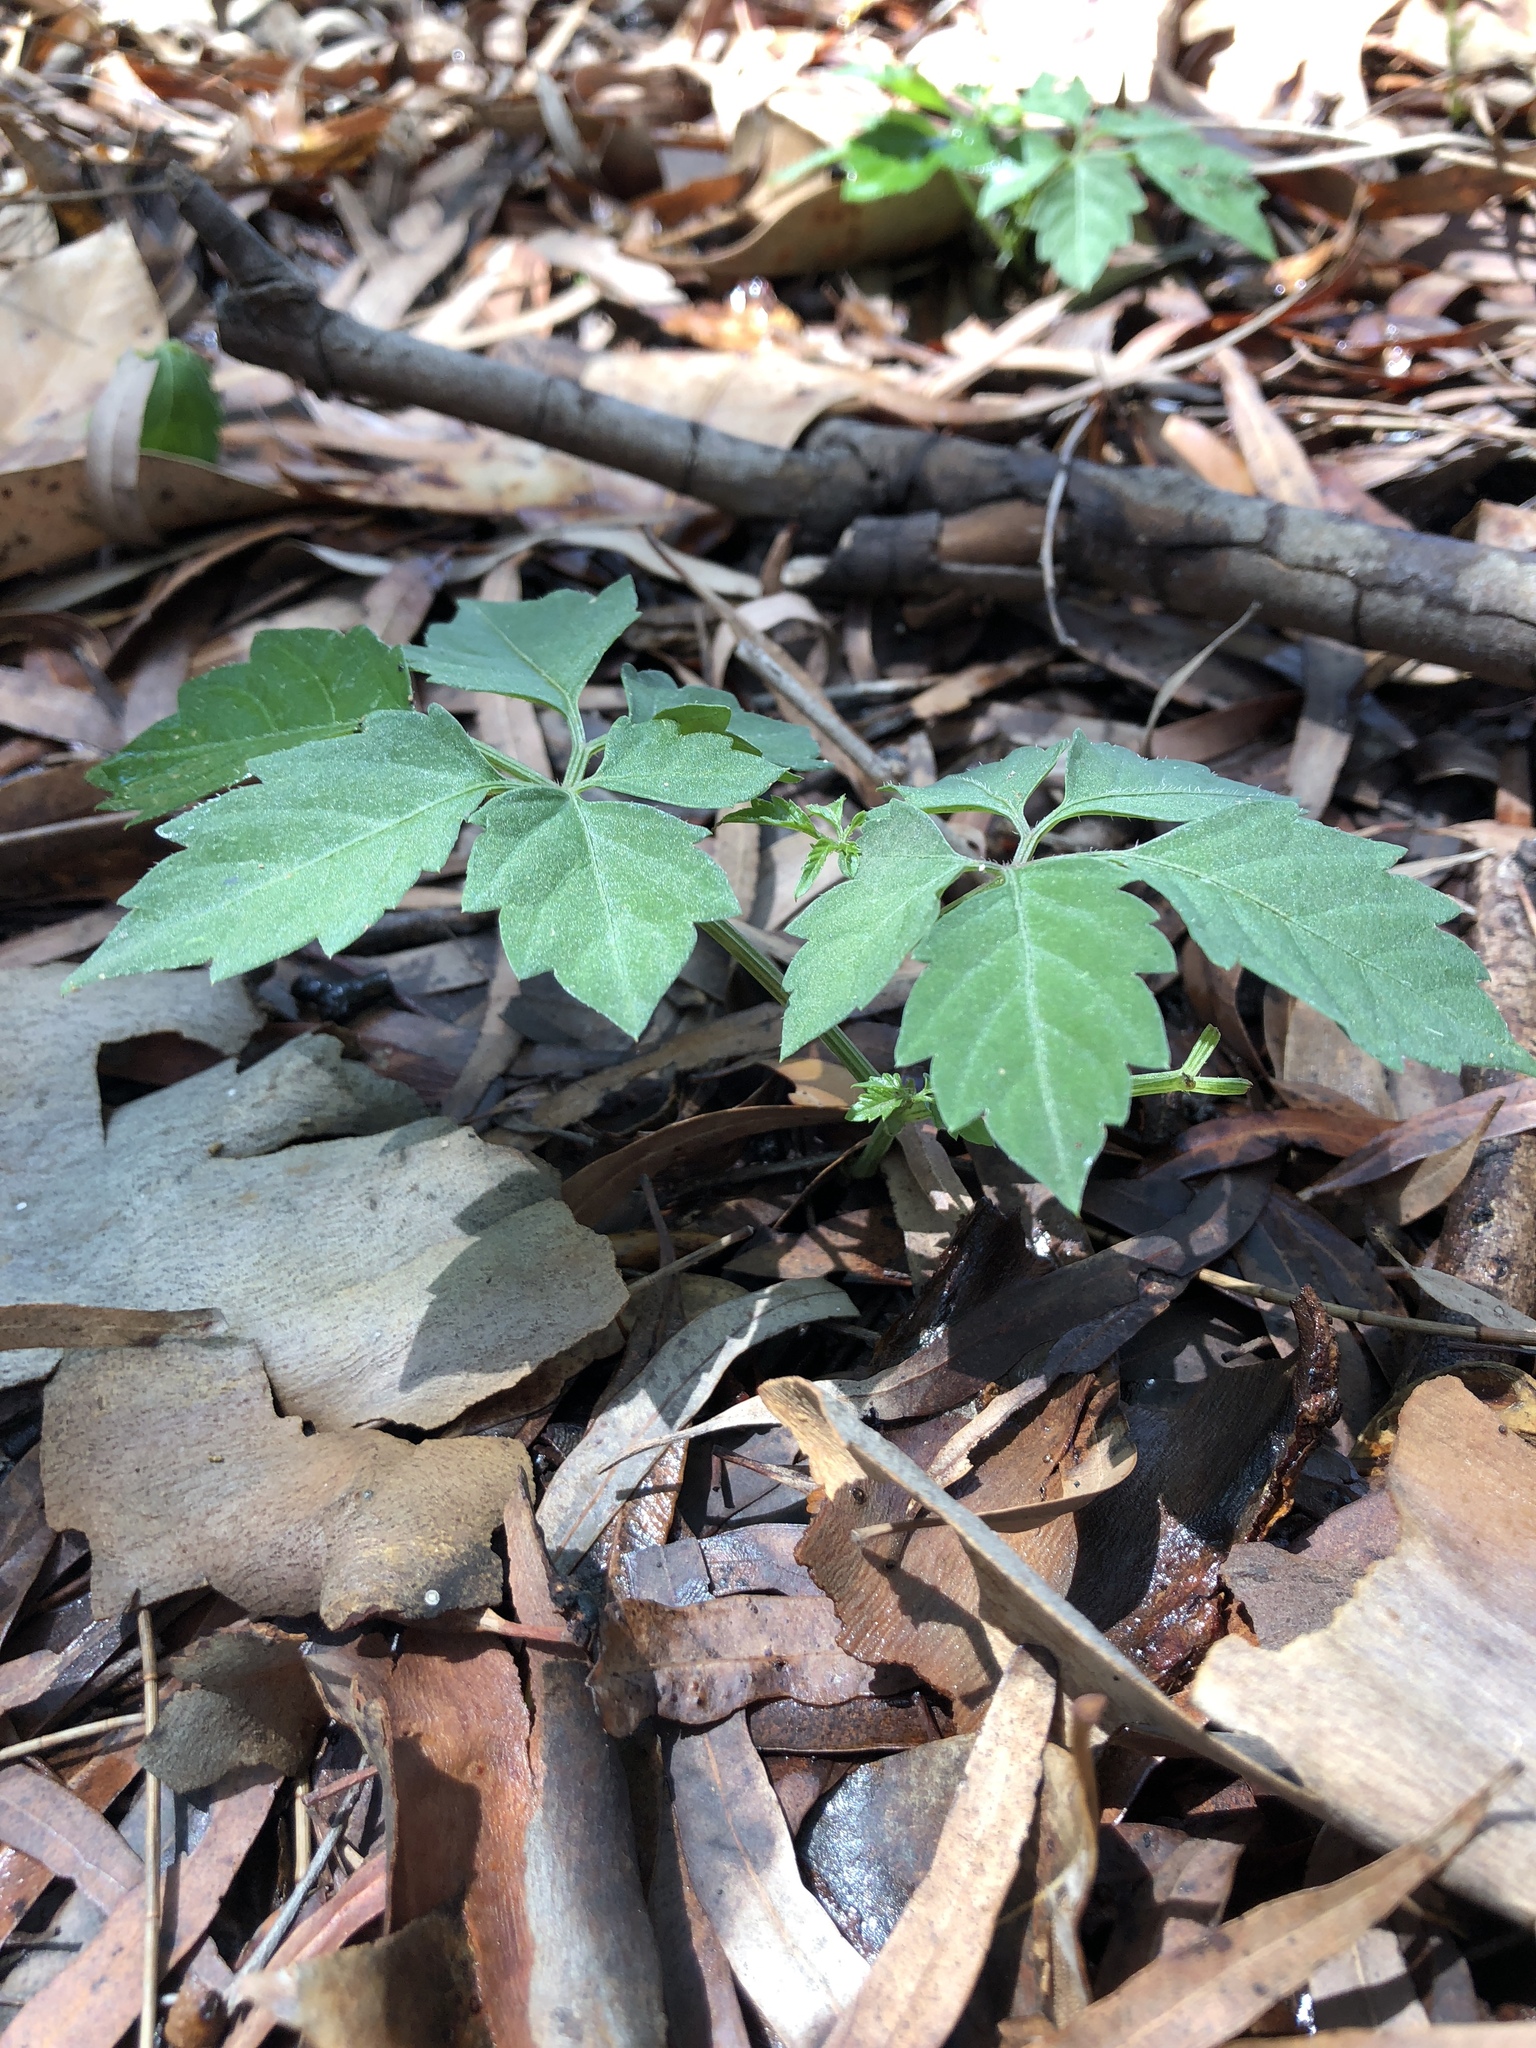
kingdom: Plantae
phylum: Tracheophyta
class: Magnoliopsida
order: Vitales
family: Vitaceae
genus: Causonis
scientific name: Causonis clematidea
